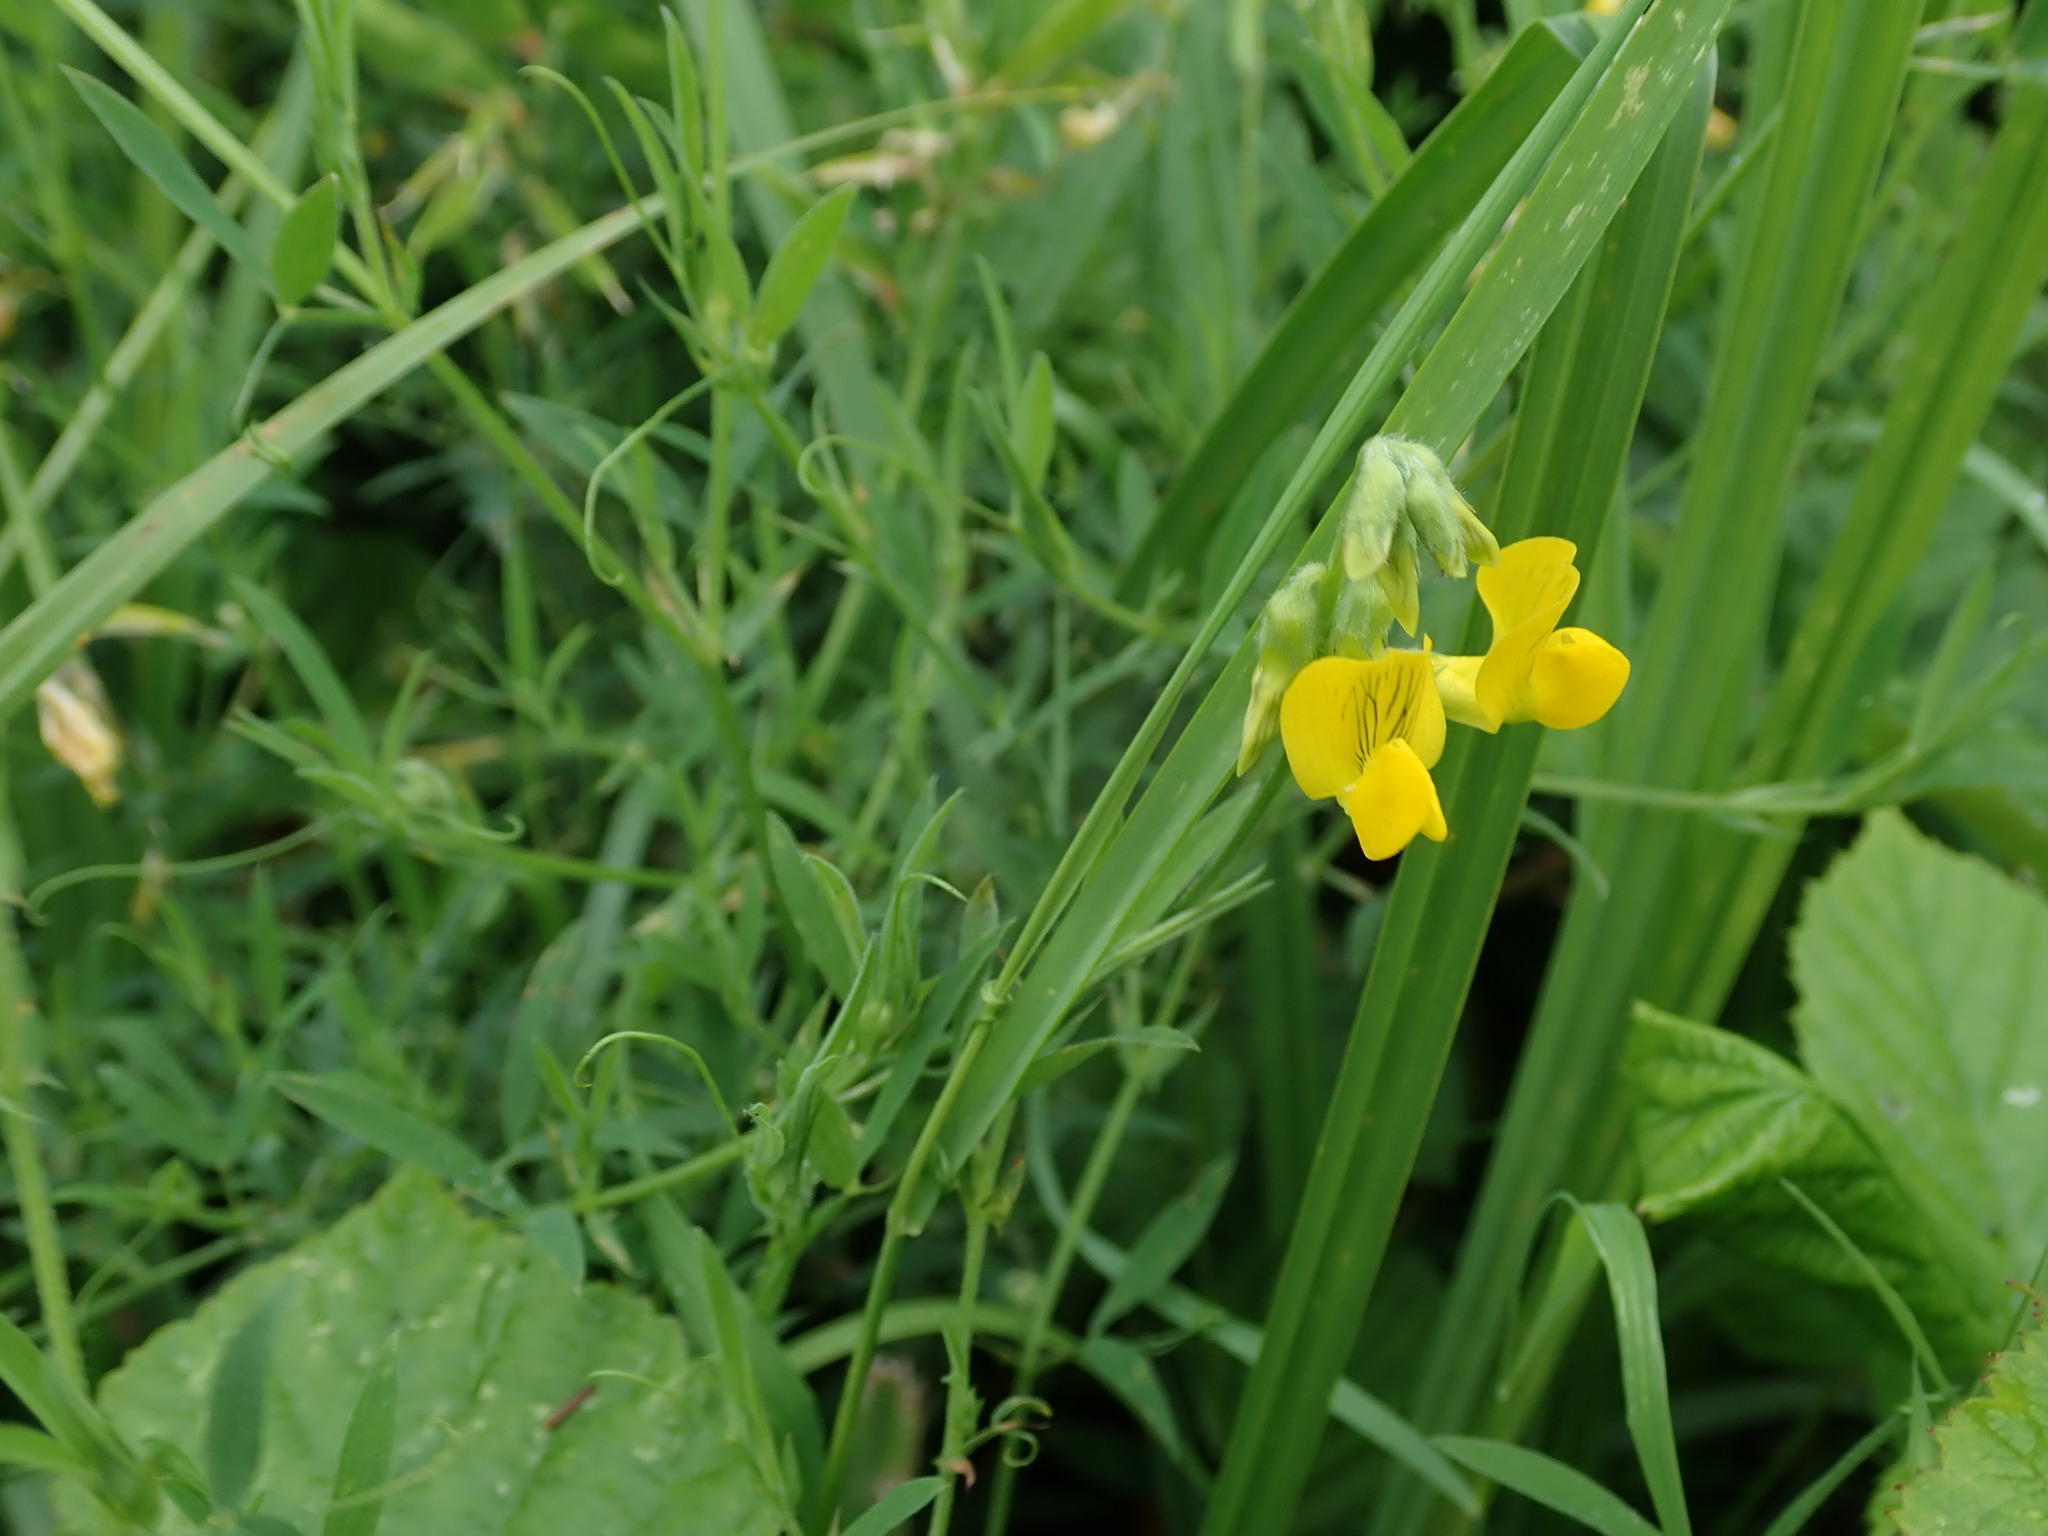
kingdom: Plantae
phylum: Tracheophyta
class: Magnoliopsida
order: Fabales
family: Fabaceae
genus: Lathyrus
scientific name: Lathyrus pratensis
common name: Meadow vetchling
